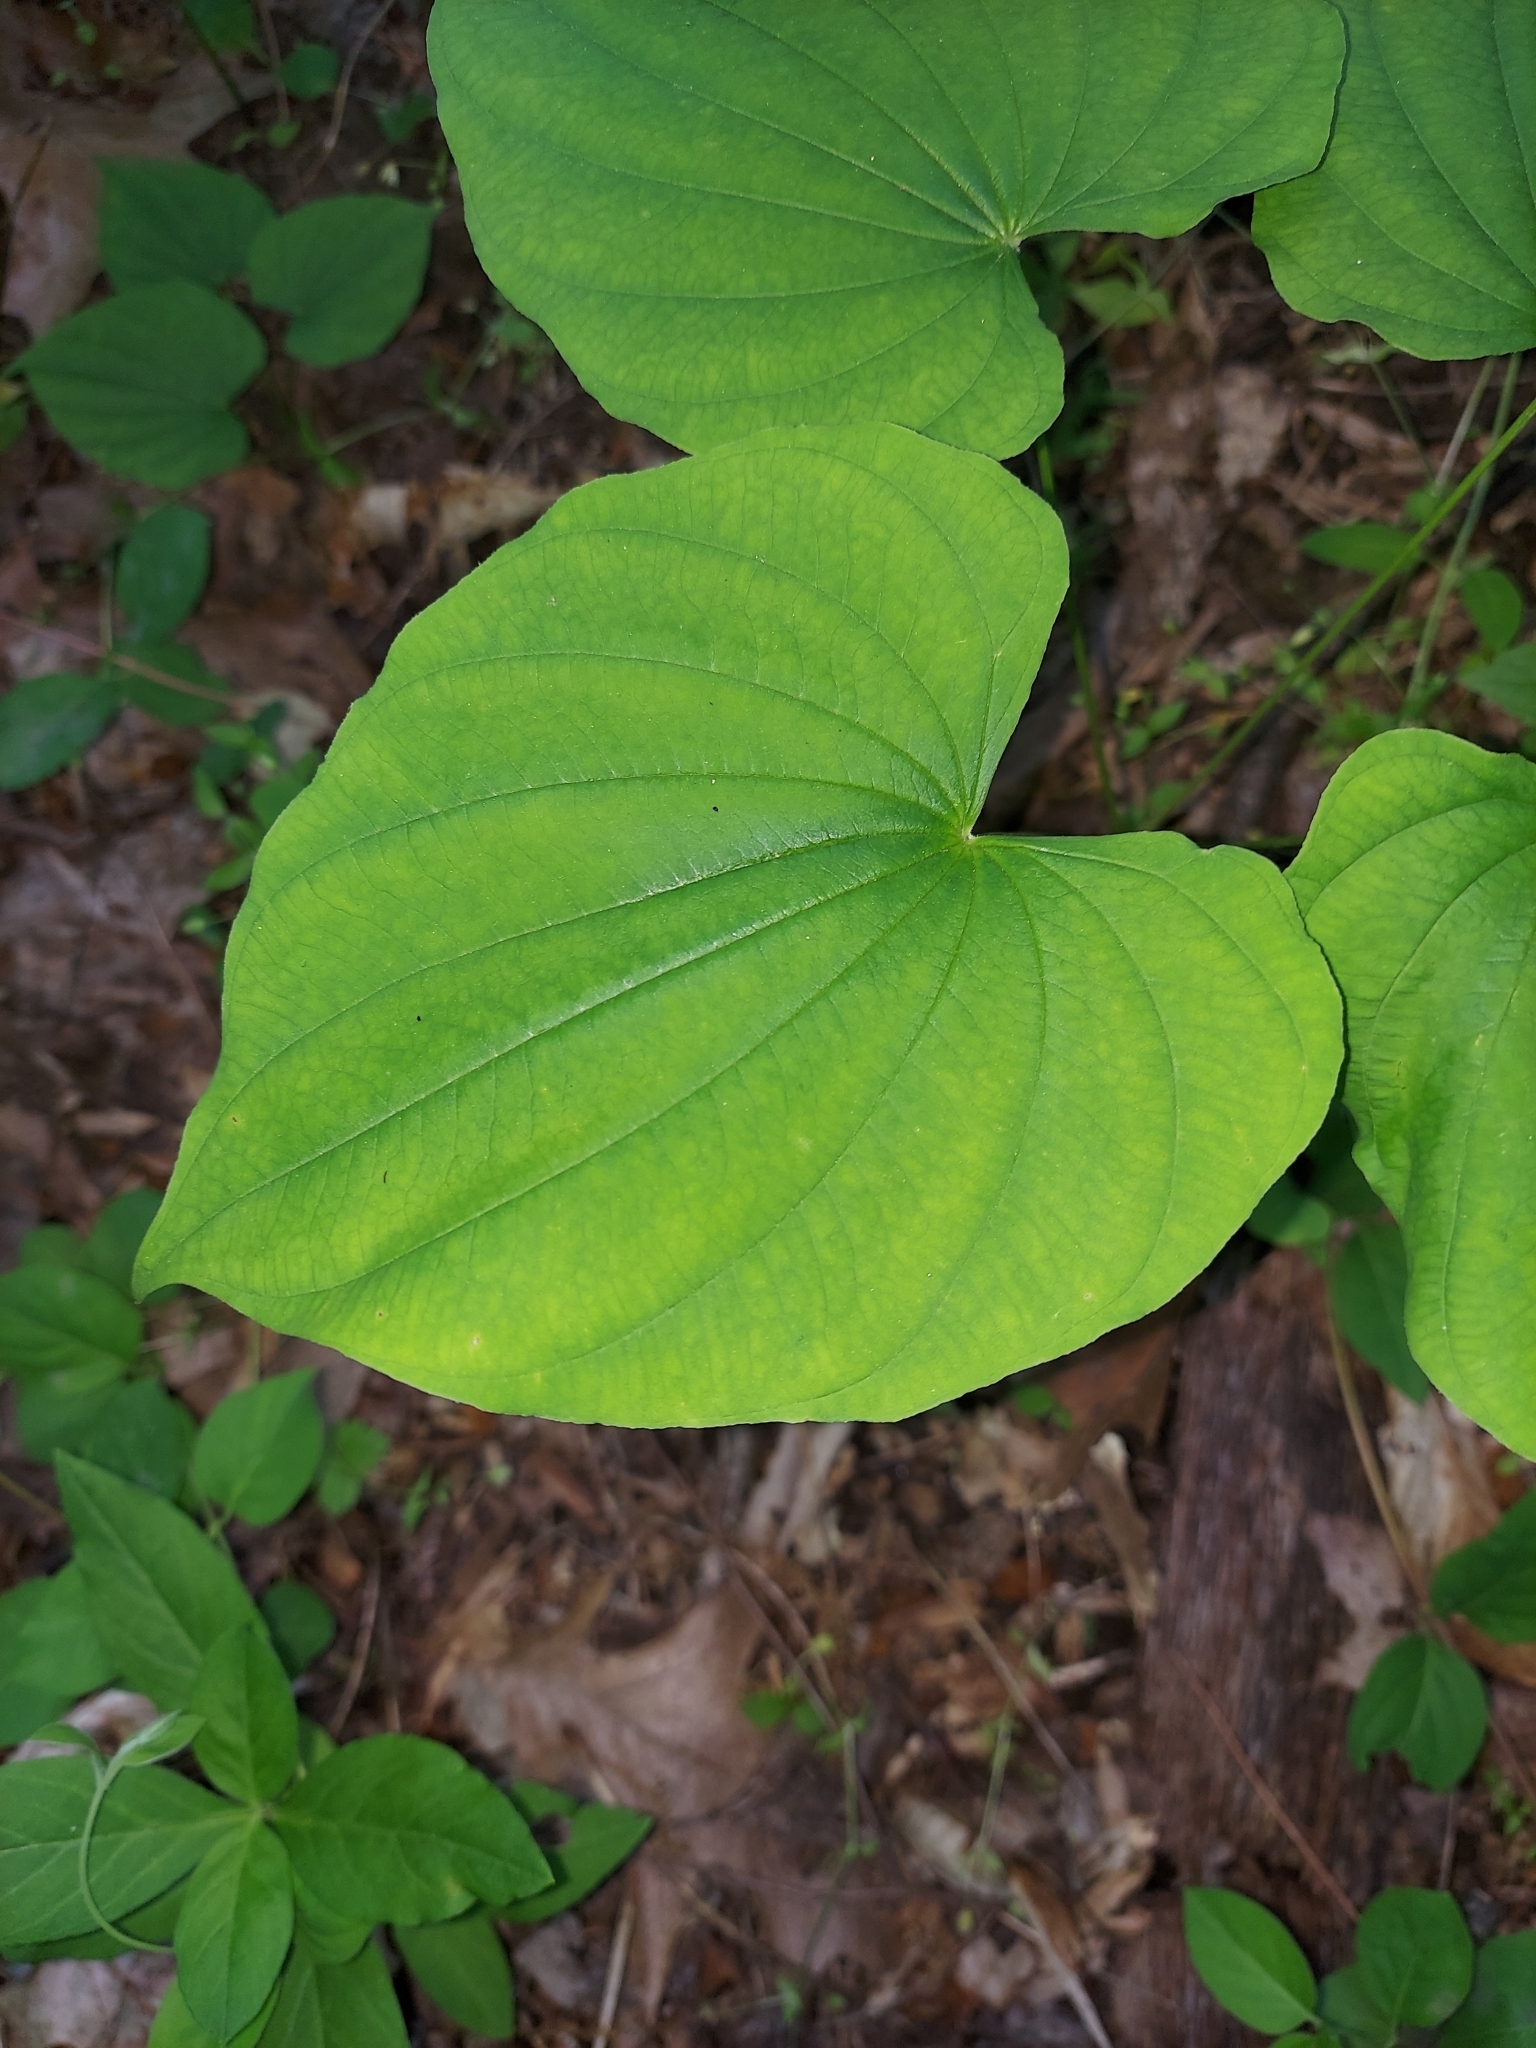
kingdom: Plantae
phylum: Tracheophyta
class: Liliopsida
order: Dioscoreales
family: Dioscoreaceae
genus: Dioscorea
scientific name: Dioscorea villosa
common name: Wild yam
